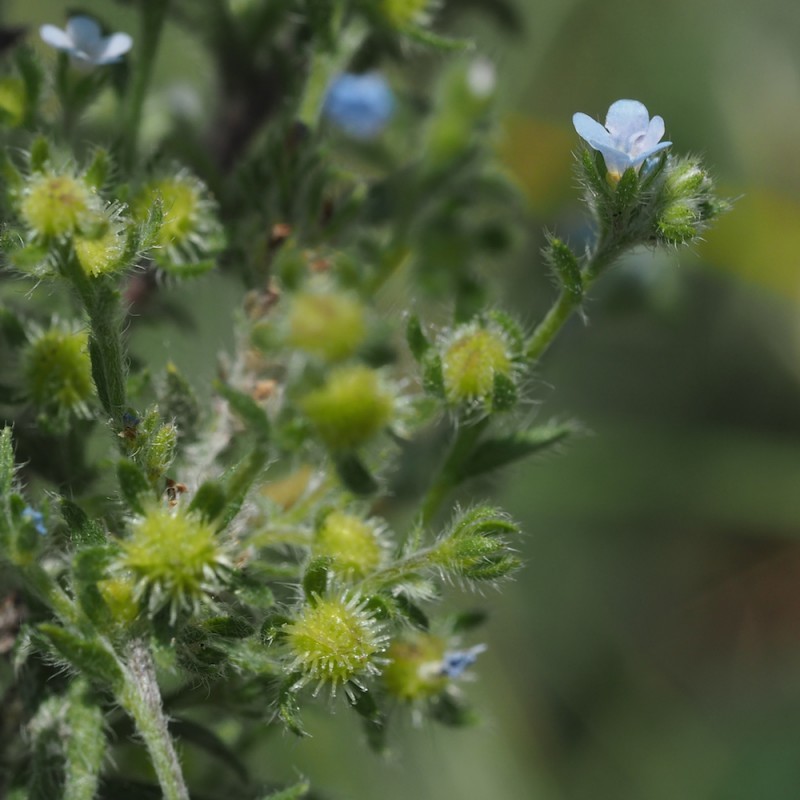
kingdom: Plantae
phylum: Tracheophyta
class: Magnoliopsida
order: Boraginales
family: Boraginaceae
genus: Lappula
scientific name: Lappula squarrosa
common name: European stickseed
